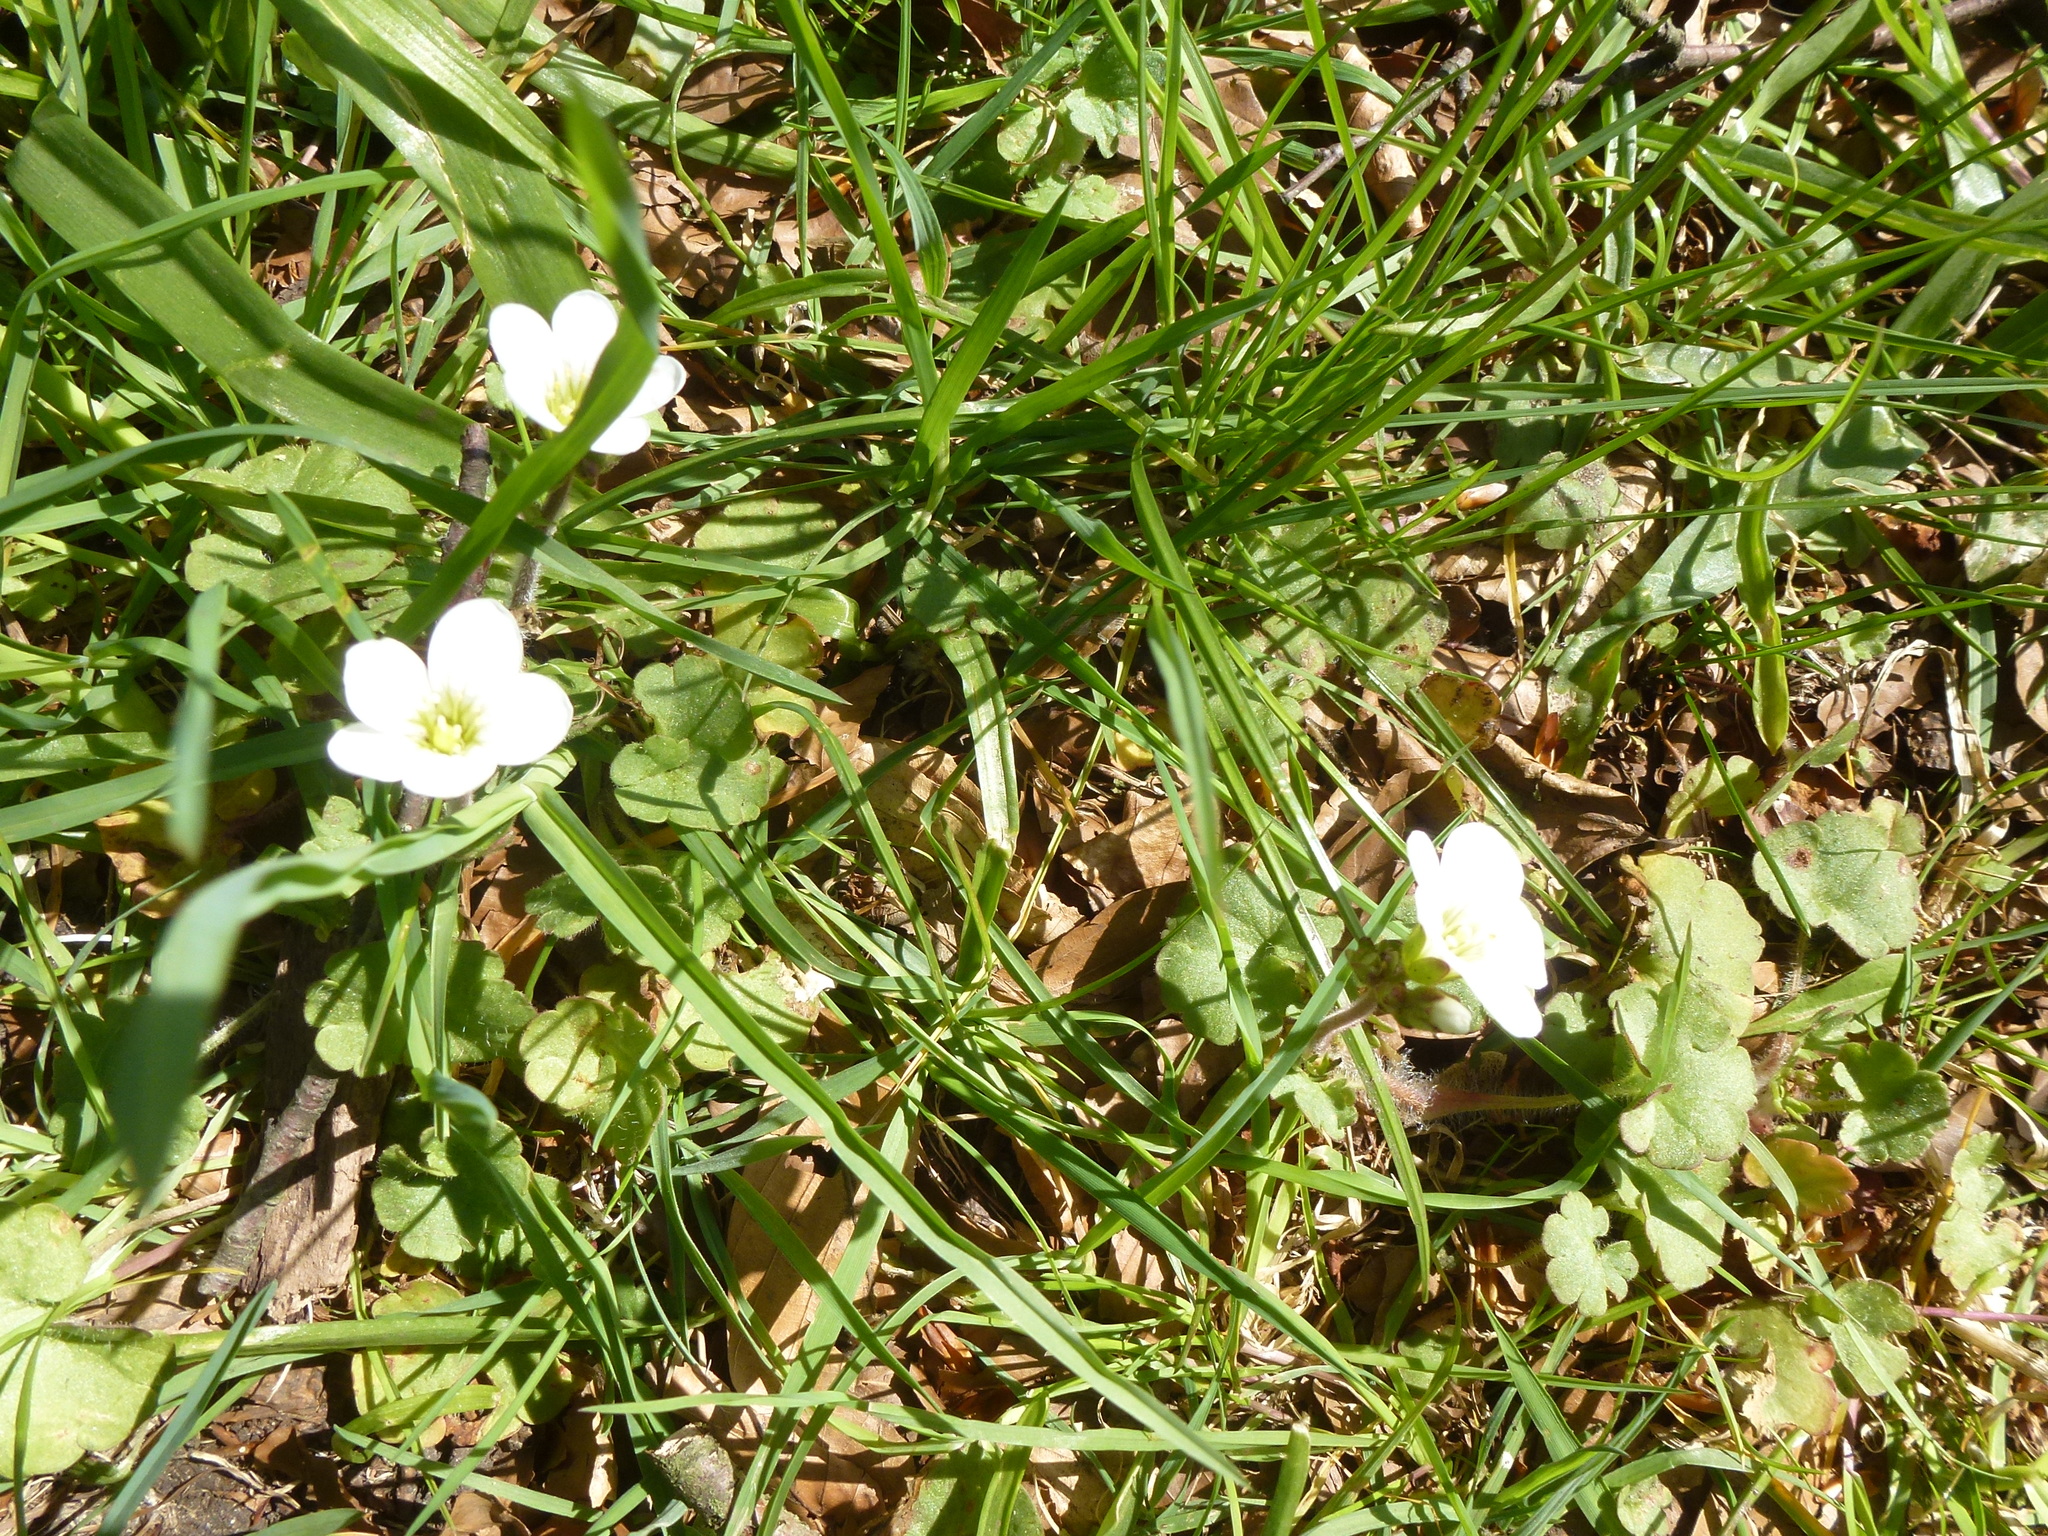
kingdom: Plantae
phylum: Tracheophyta
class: Magnoliopsida
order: Saxifragales
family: Saxifragaceae
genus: Saxifraga
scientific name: Saxifraga granulata
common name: Meadow saxifrage
